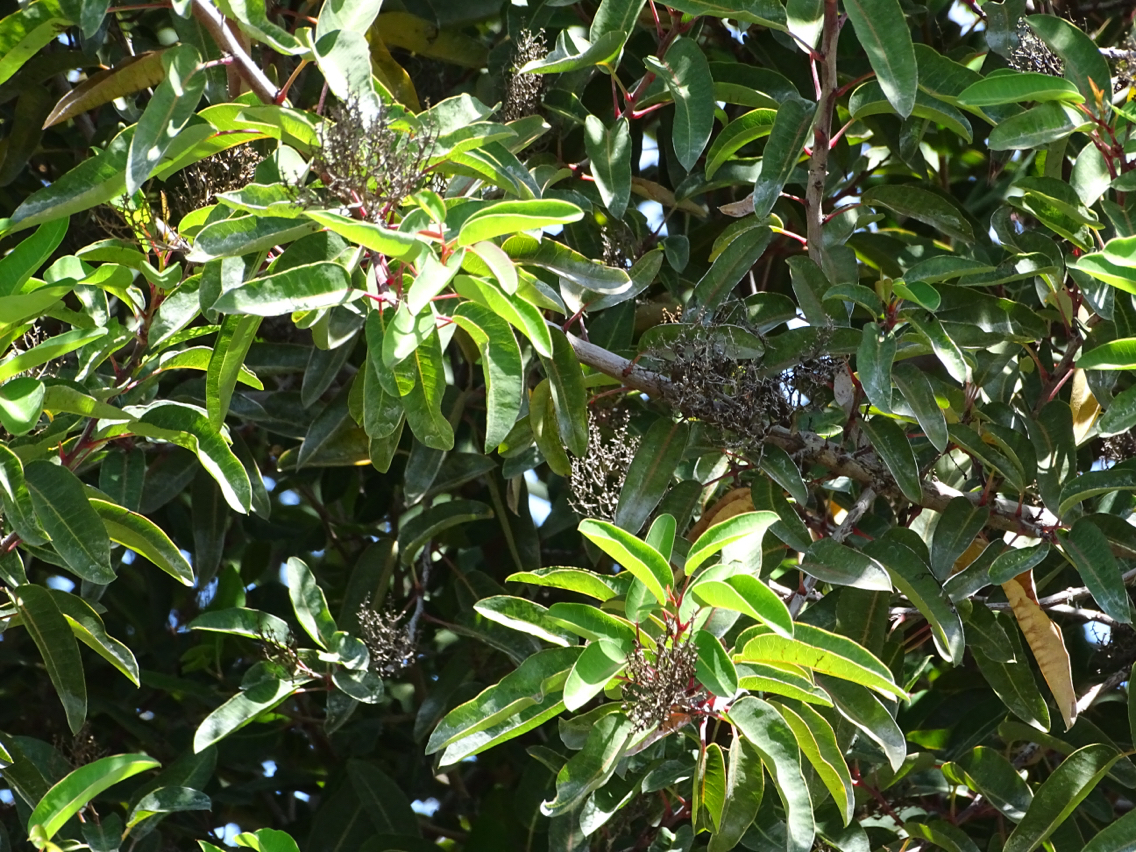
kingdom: Plantae
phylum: Tracheophyta
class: Magnoliopsida
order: Sapindales
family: Anacardiaceae
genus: Malosma
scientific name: Malosma laurina
